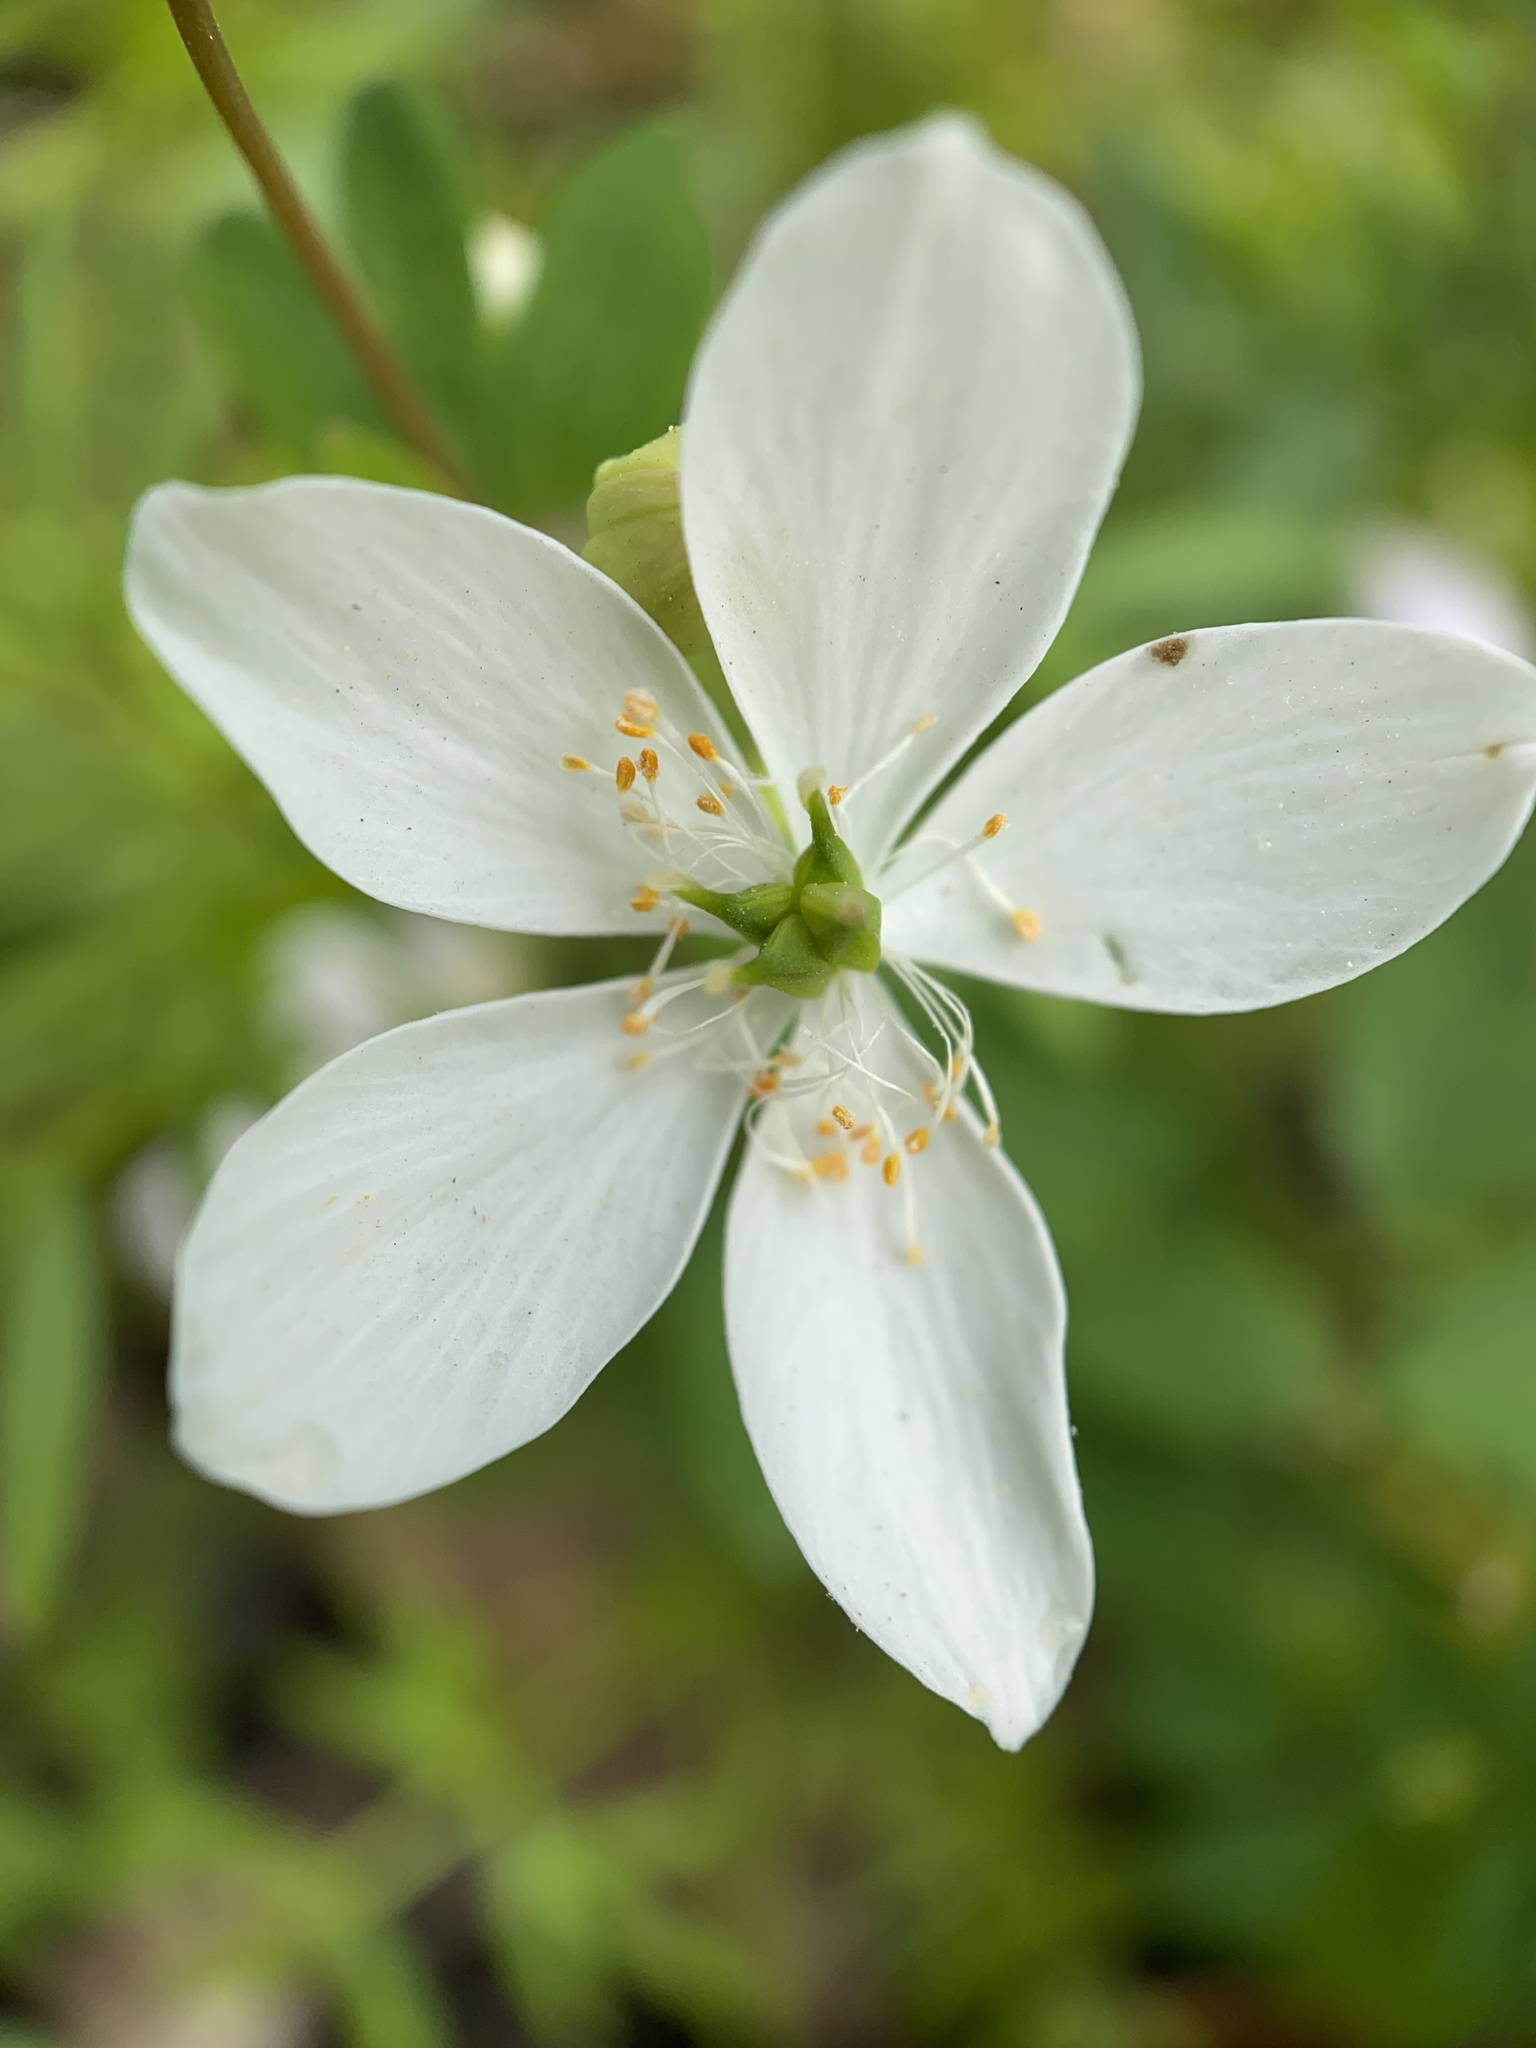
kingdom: Plantae
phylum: Tracheophyta
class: Magnoliopsida
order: Ranunculales
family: Ranunculaceae
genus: Enemion
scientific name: Enemion biternatum
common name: Eastern false rue-anemone
